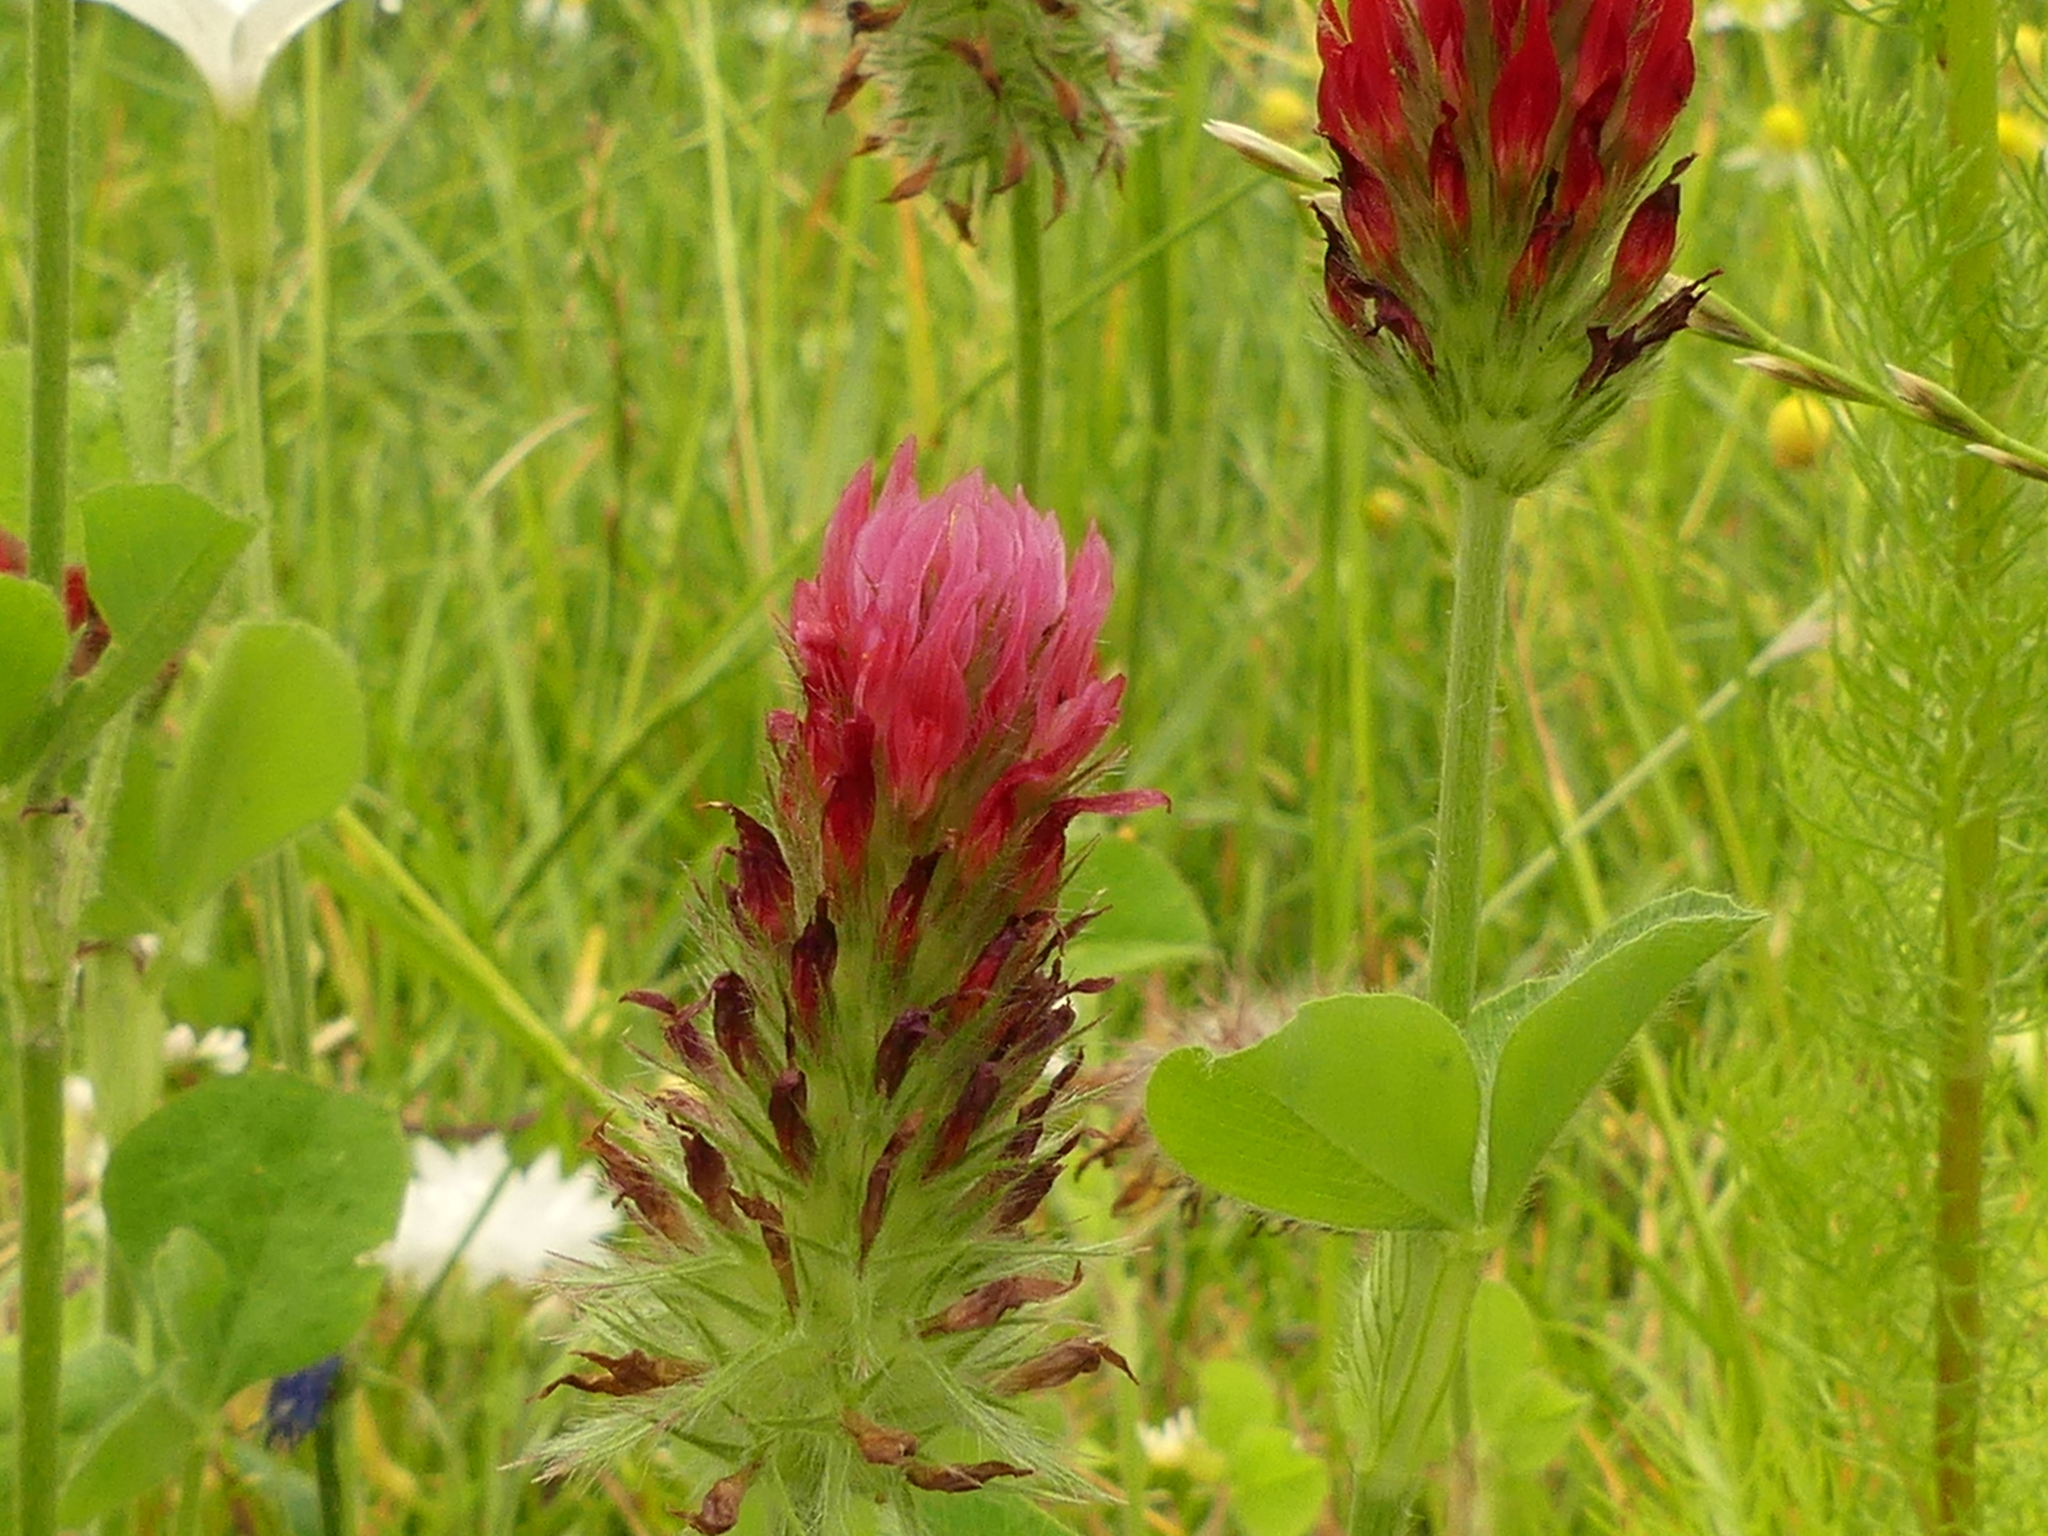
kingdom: Plantae
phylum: Tracheophyta
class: Magnoliopsida
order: Fabales
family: Fabaceae
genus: Trifolium
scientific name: Trifolium incarnatum
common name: Crimson clover
